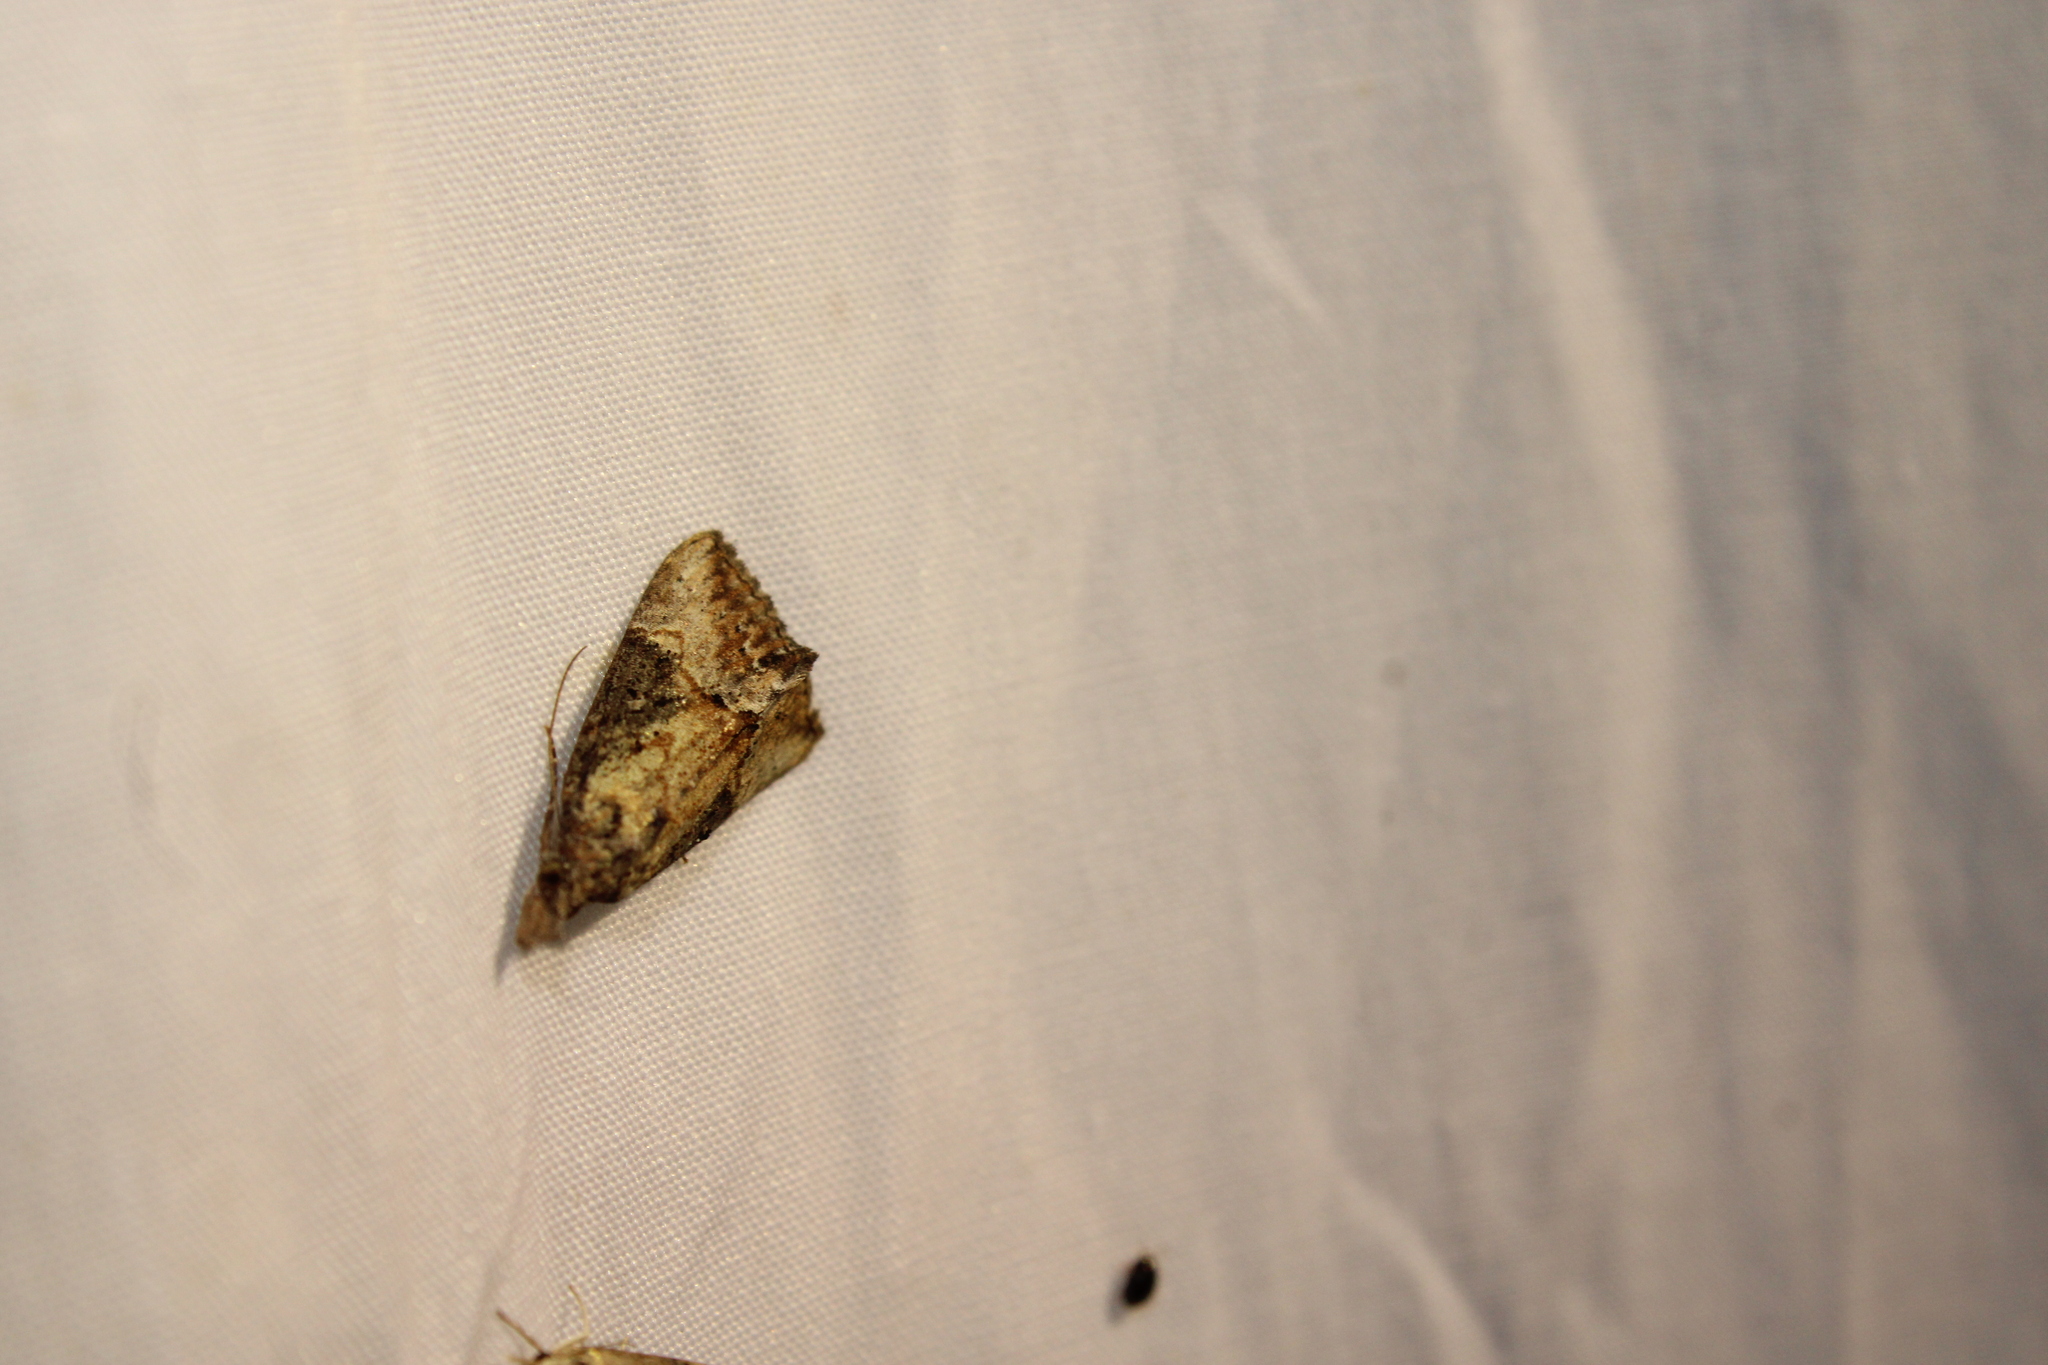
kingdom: Animalia
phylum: Arthropoda
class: Insecta
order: Lepidoptera
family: Erebidae
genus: Hypena
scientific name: Hypena scabra
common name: Green cloverworm
